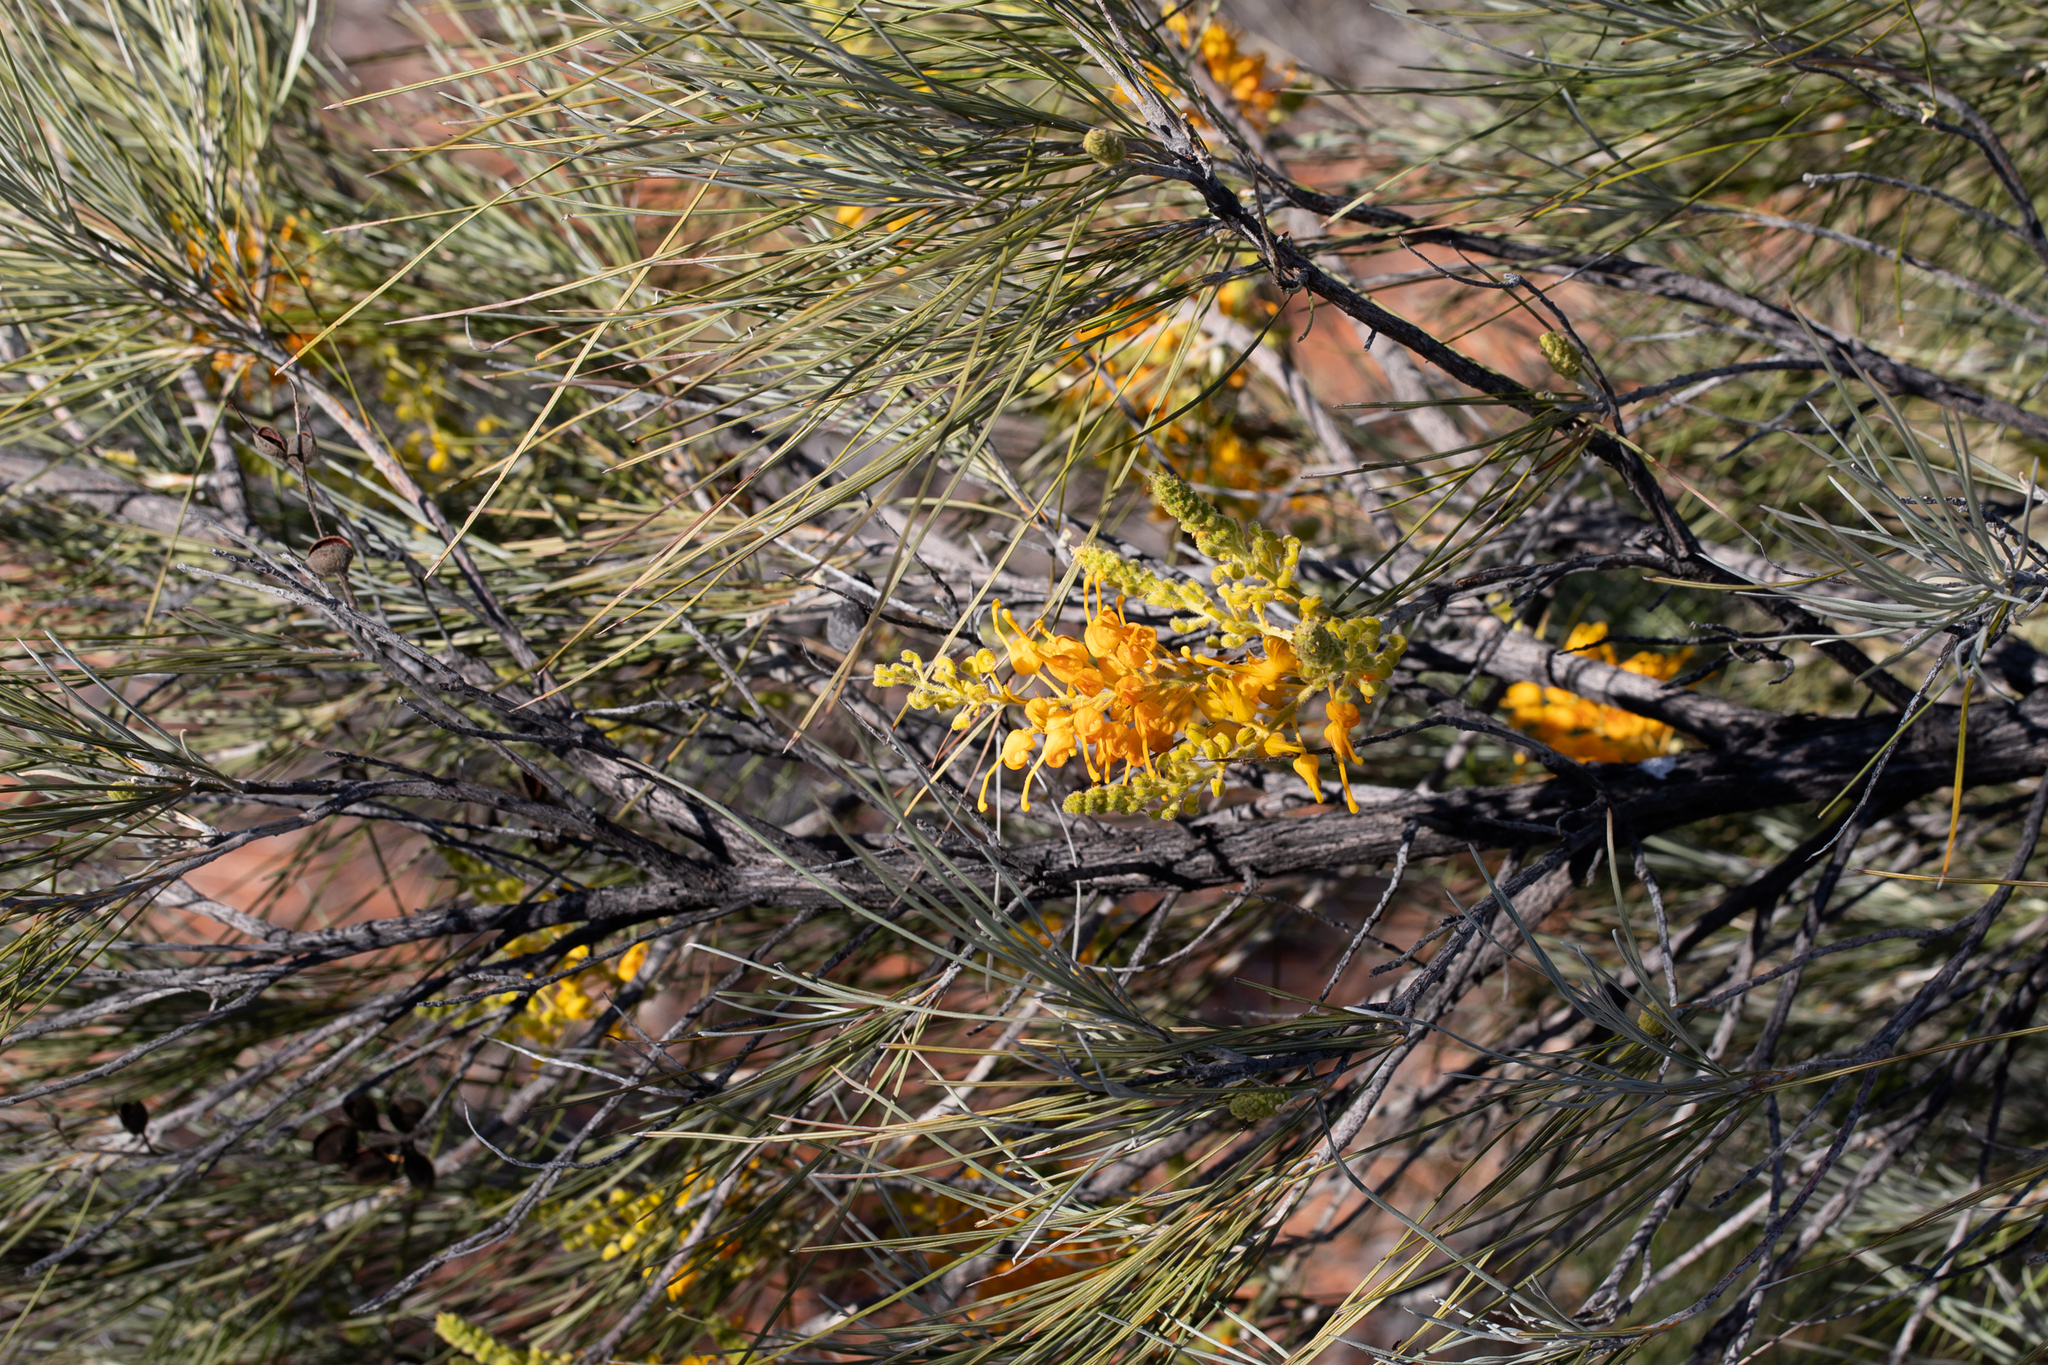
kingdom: Plantae
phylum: Tracheophyta
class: Magnoliopsida
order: Proteales
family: Proteaceae
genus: Grevillea
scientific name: Grevillea juncifolia
